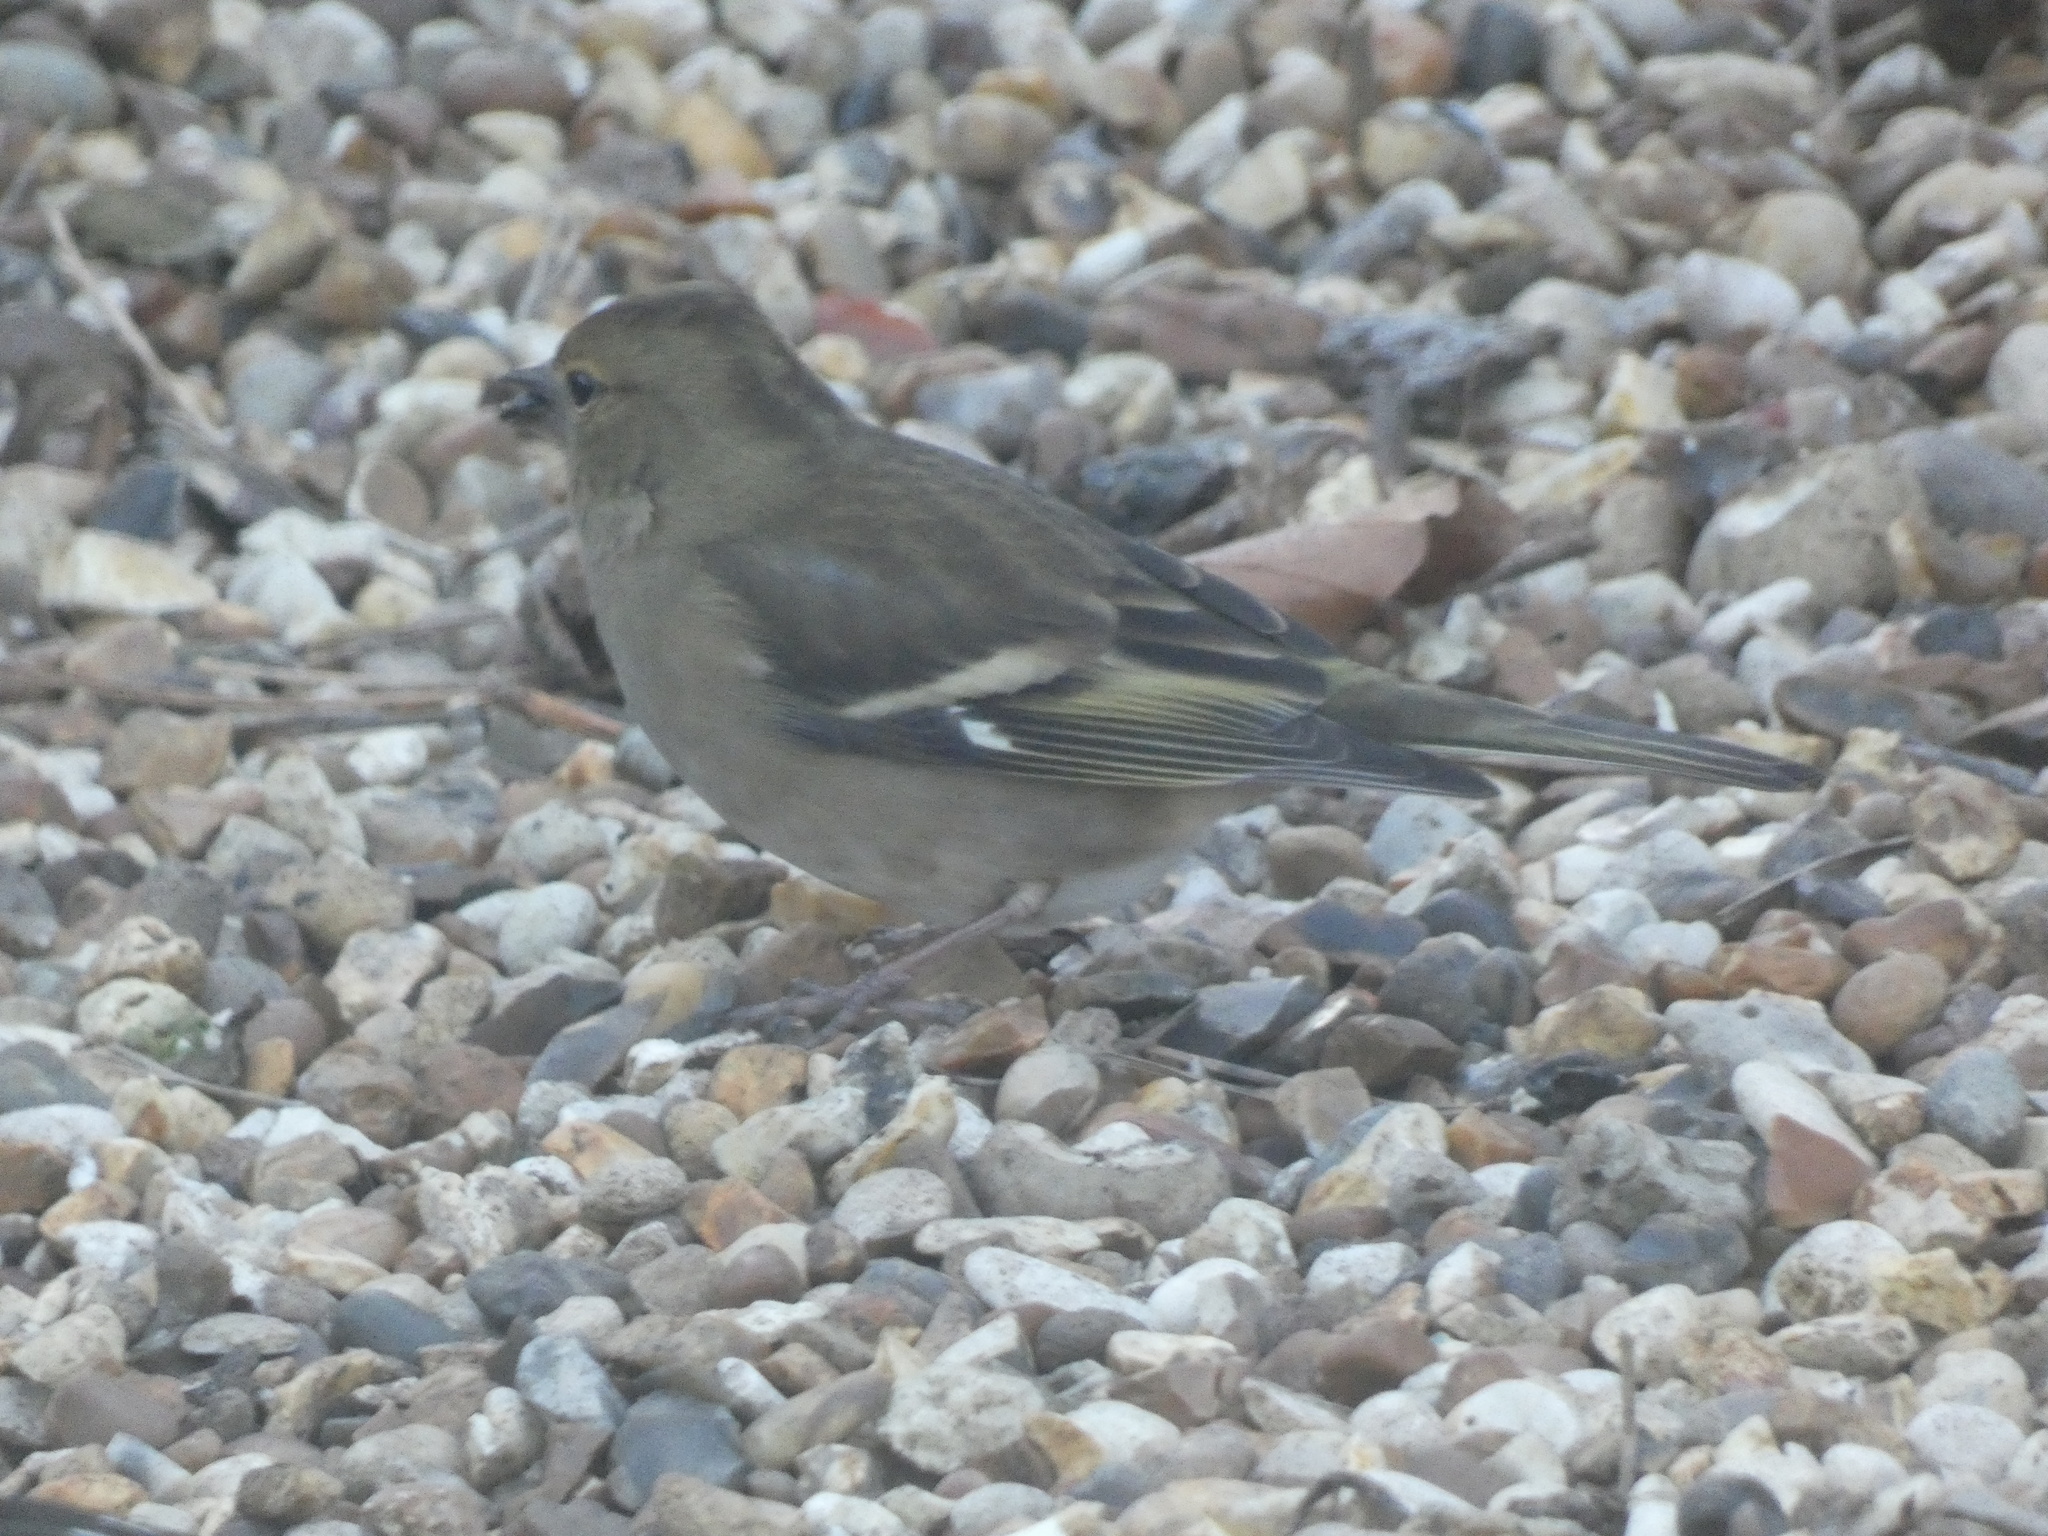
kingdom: Animalia
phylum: Chordata
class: Aves
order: Passeriformes
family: Fringillidae
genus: Fringilla
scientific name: Fringilla coelebs
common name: Common chaffinch
